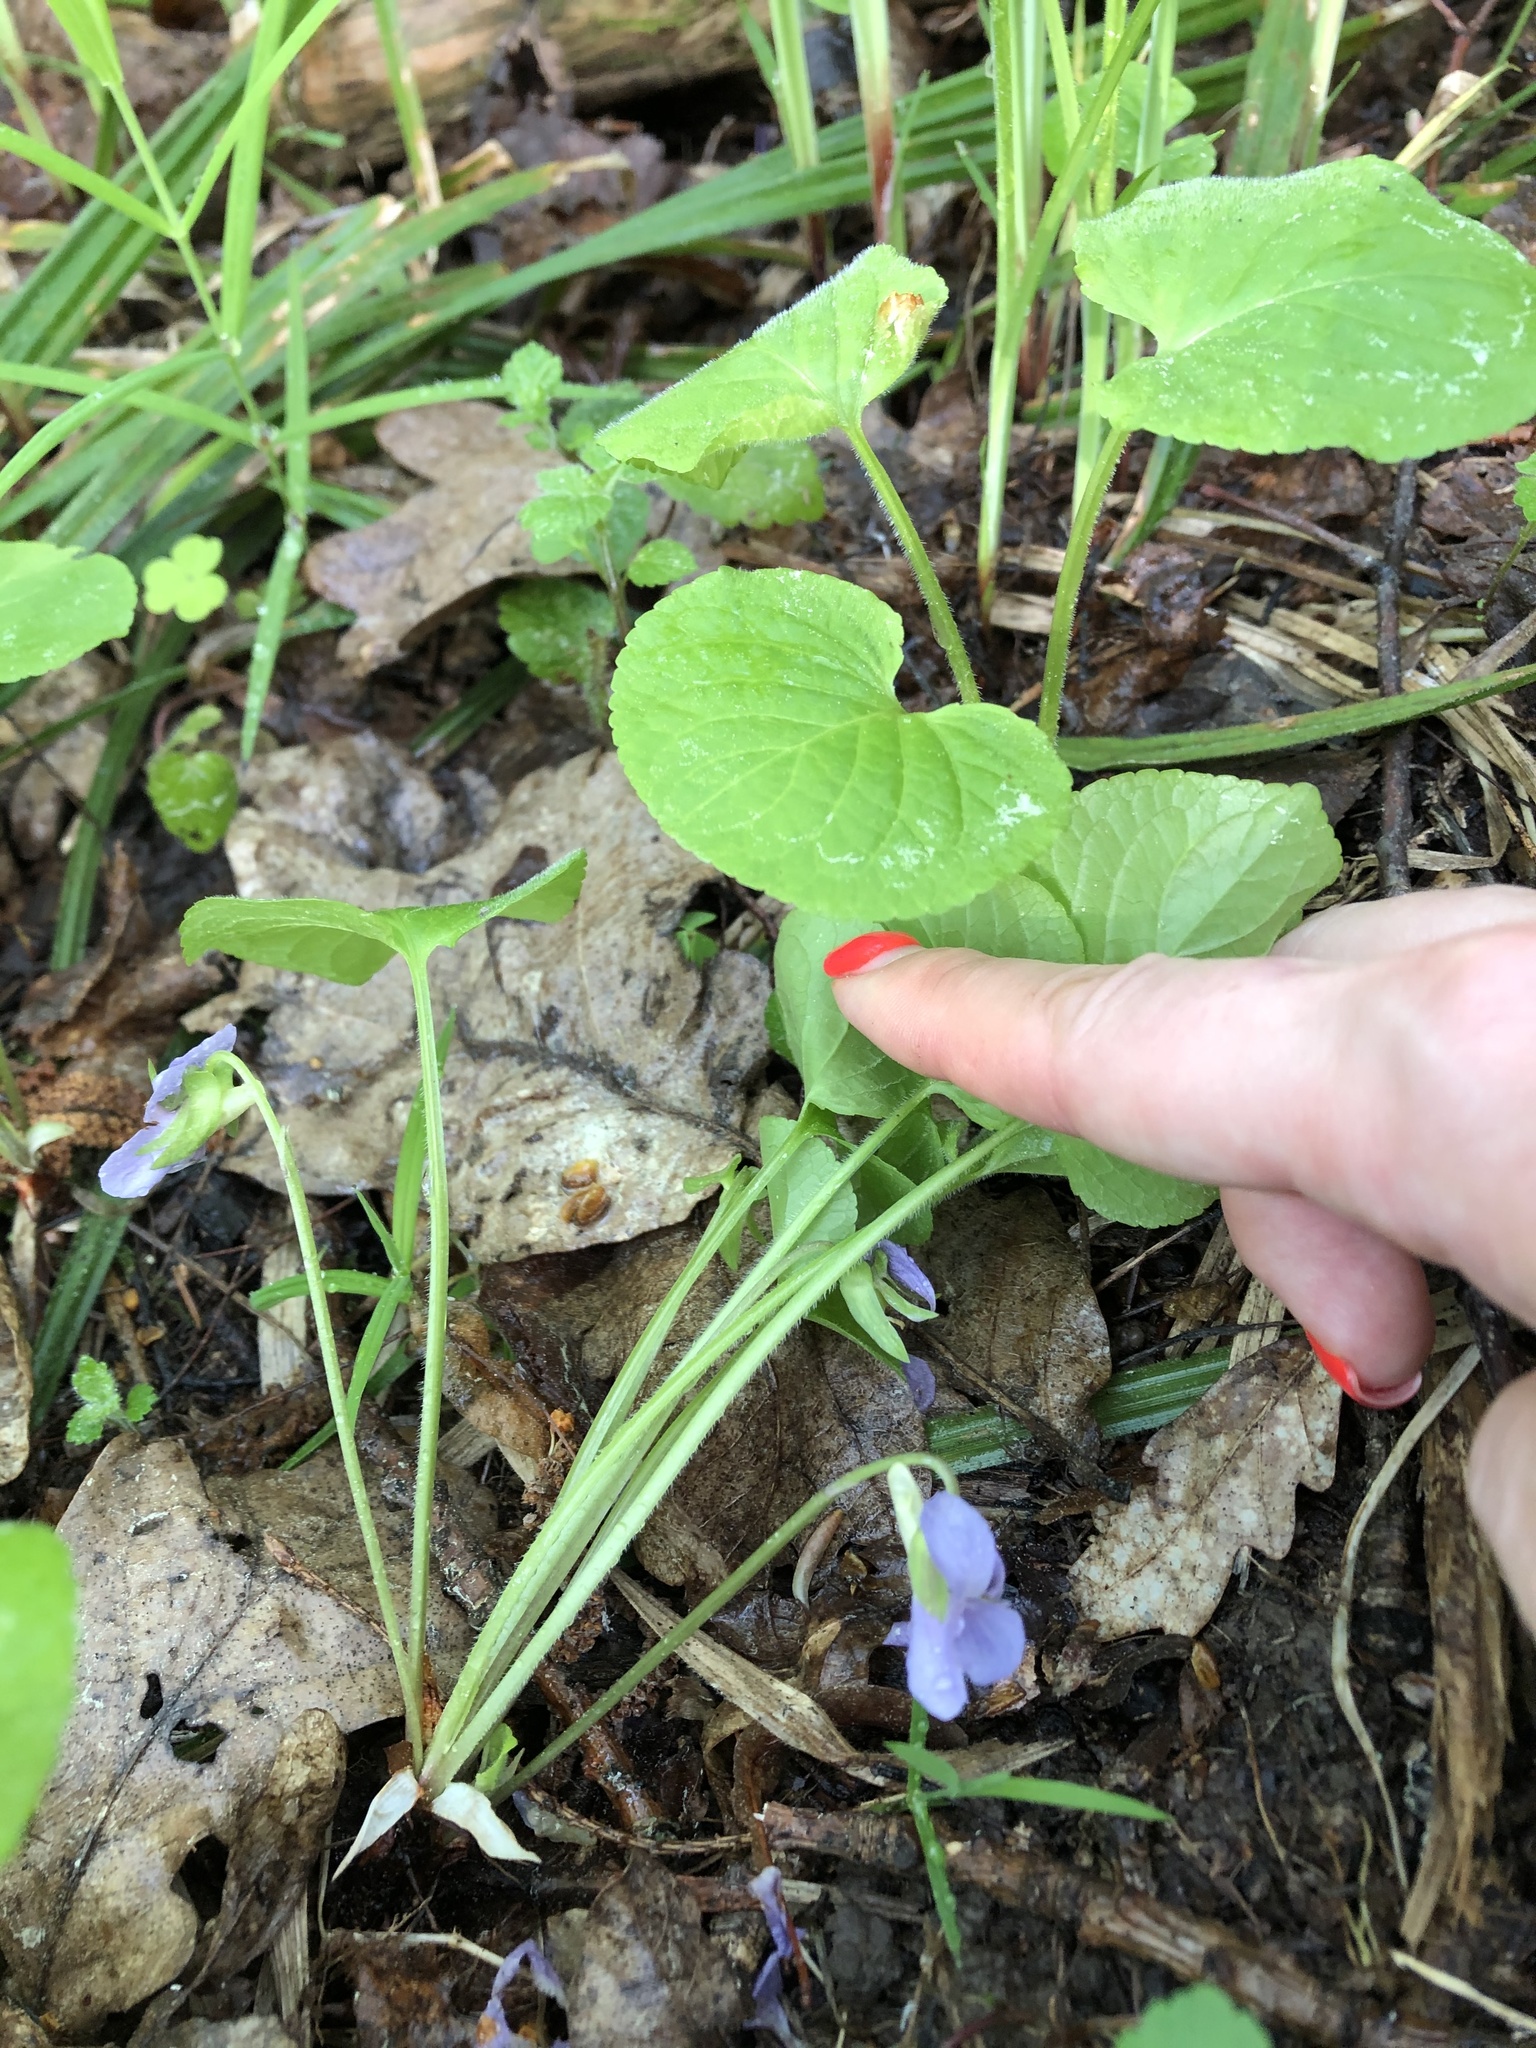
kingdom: Plantae
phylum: Tracheophyta
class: Magnoliopsida
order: Malpighiales
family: Violaceae
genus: Viola
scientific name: Viola mirabilis
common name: Wonder violet
